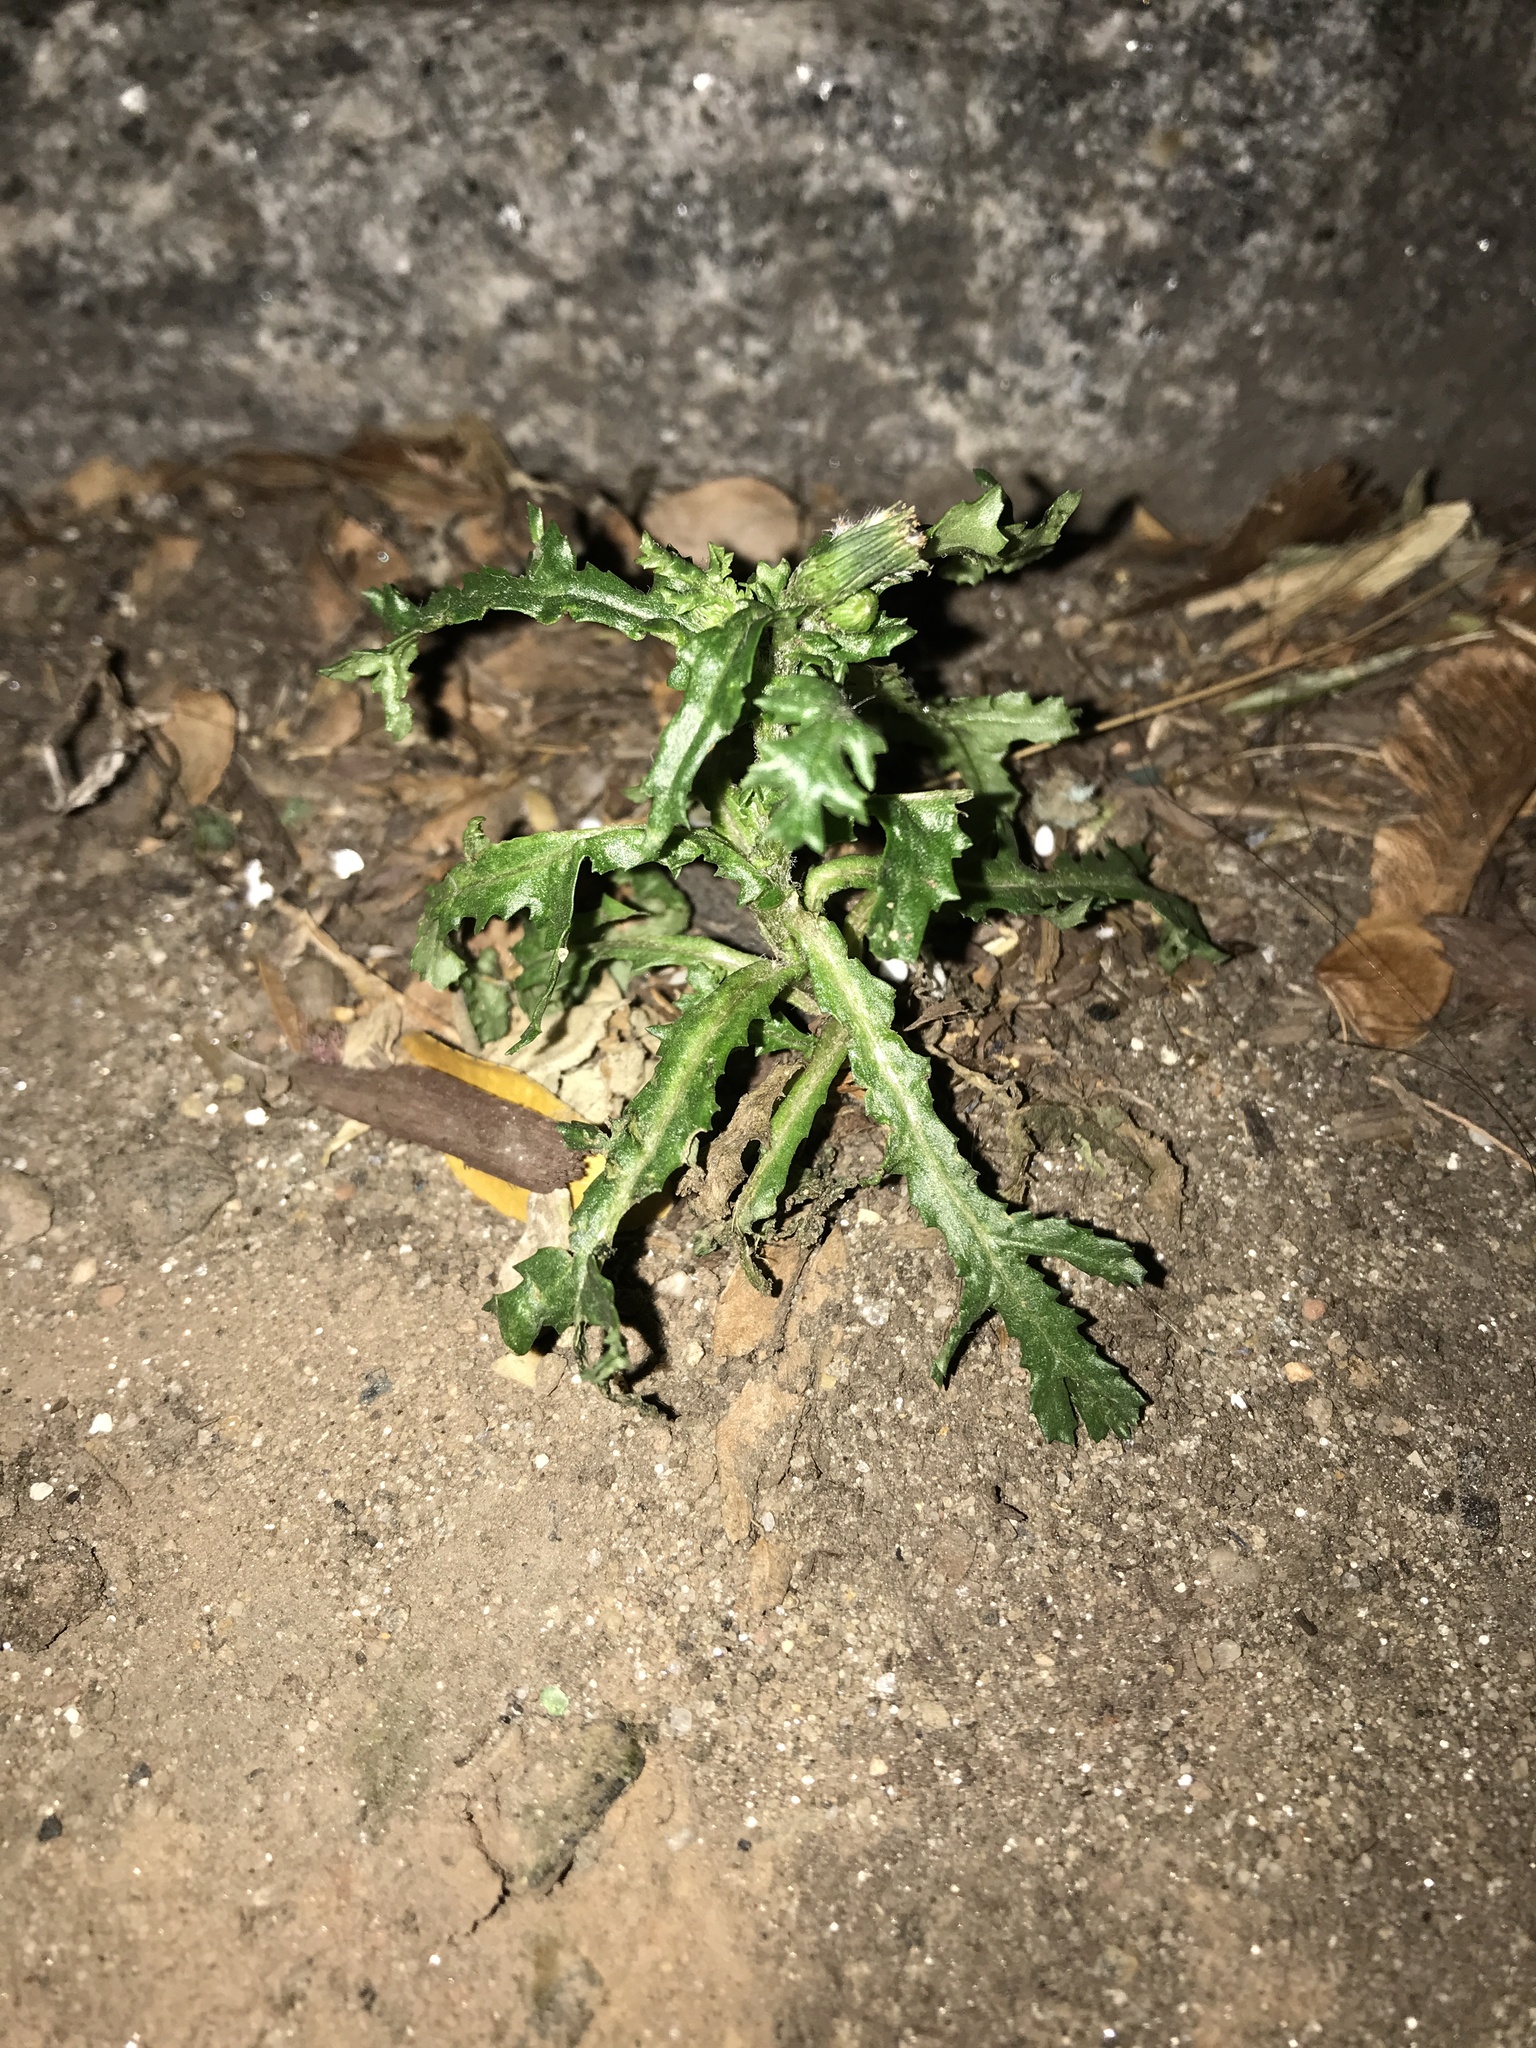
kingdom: Plantae
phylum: Tracheophyta
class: Magnoliopsida
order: Asterales
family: Asteraceae
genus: Senecio
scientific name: Senecio vulgaris
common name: Old-man-in-the-spring
